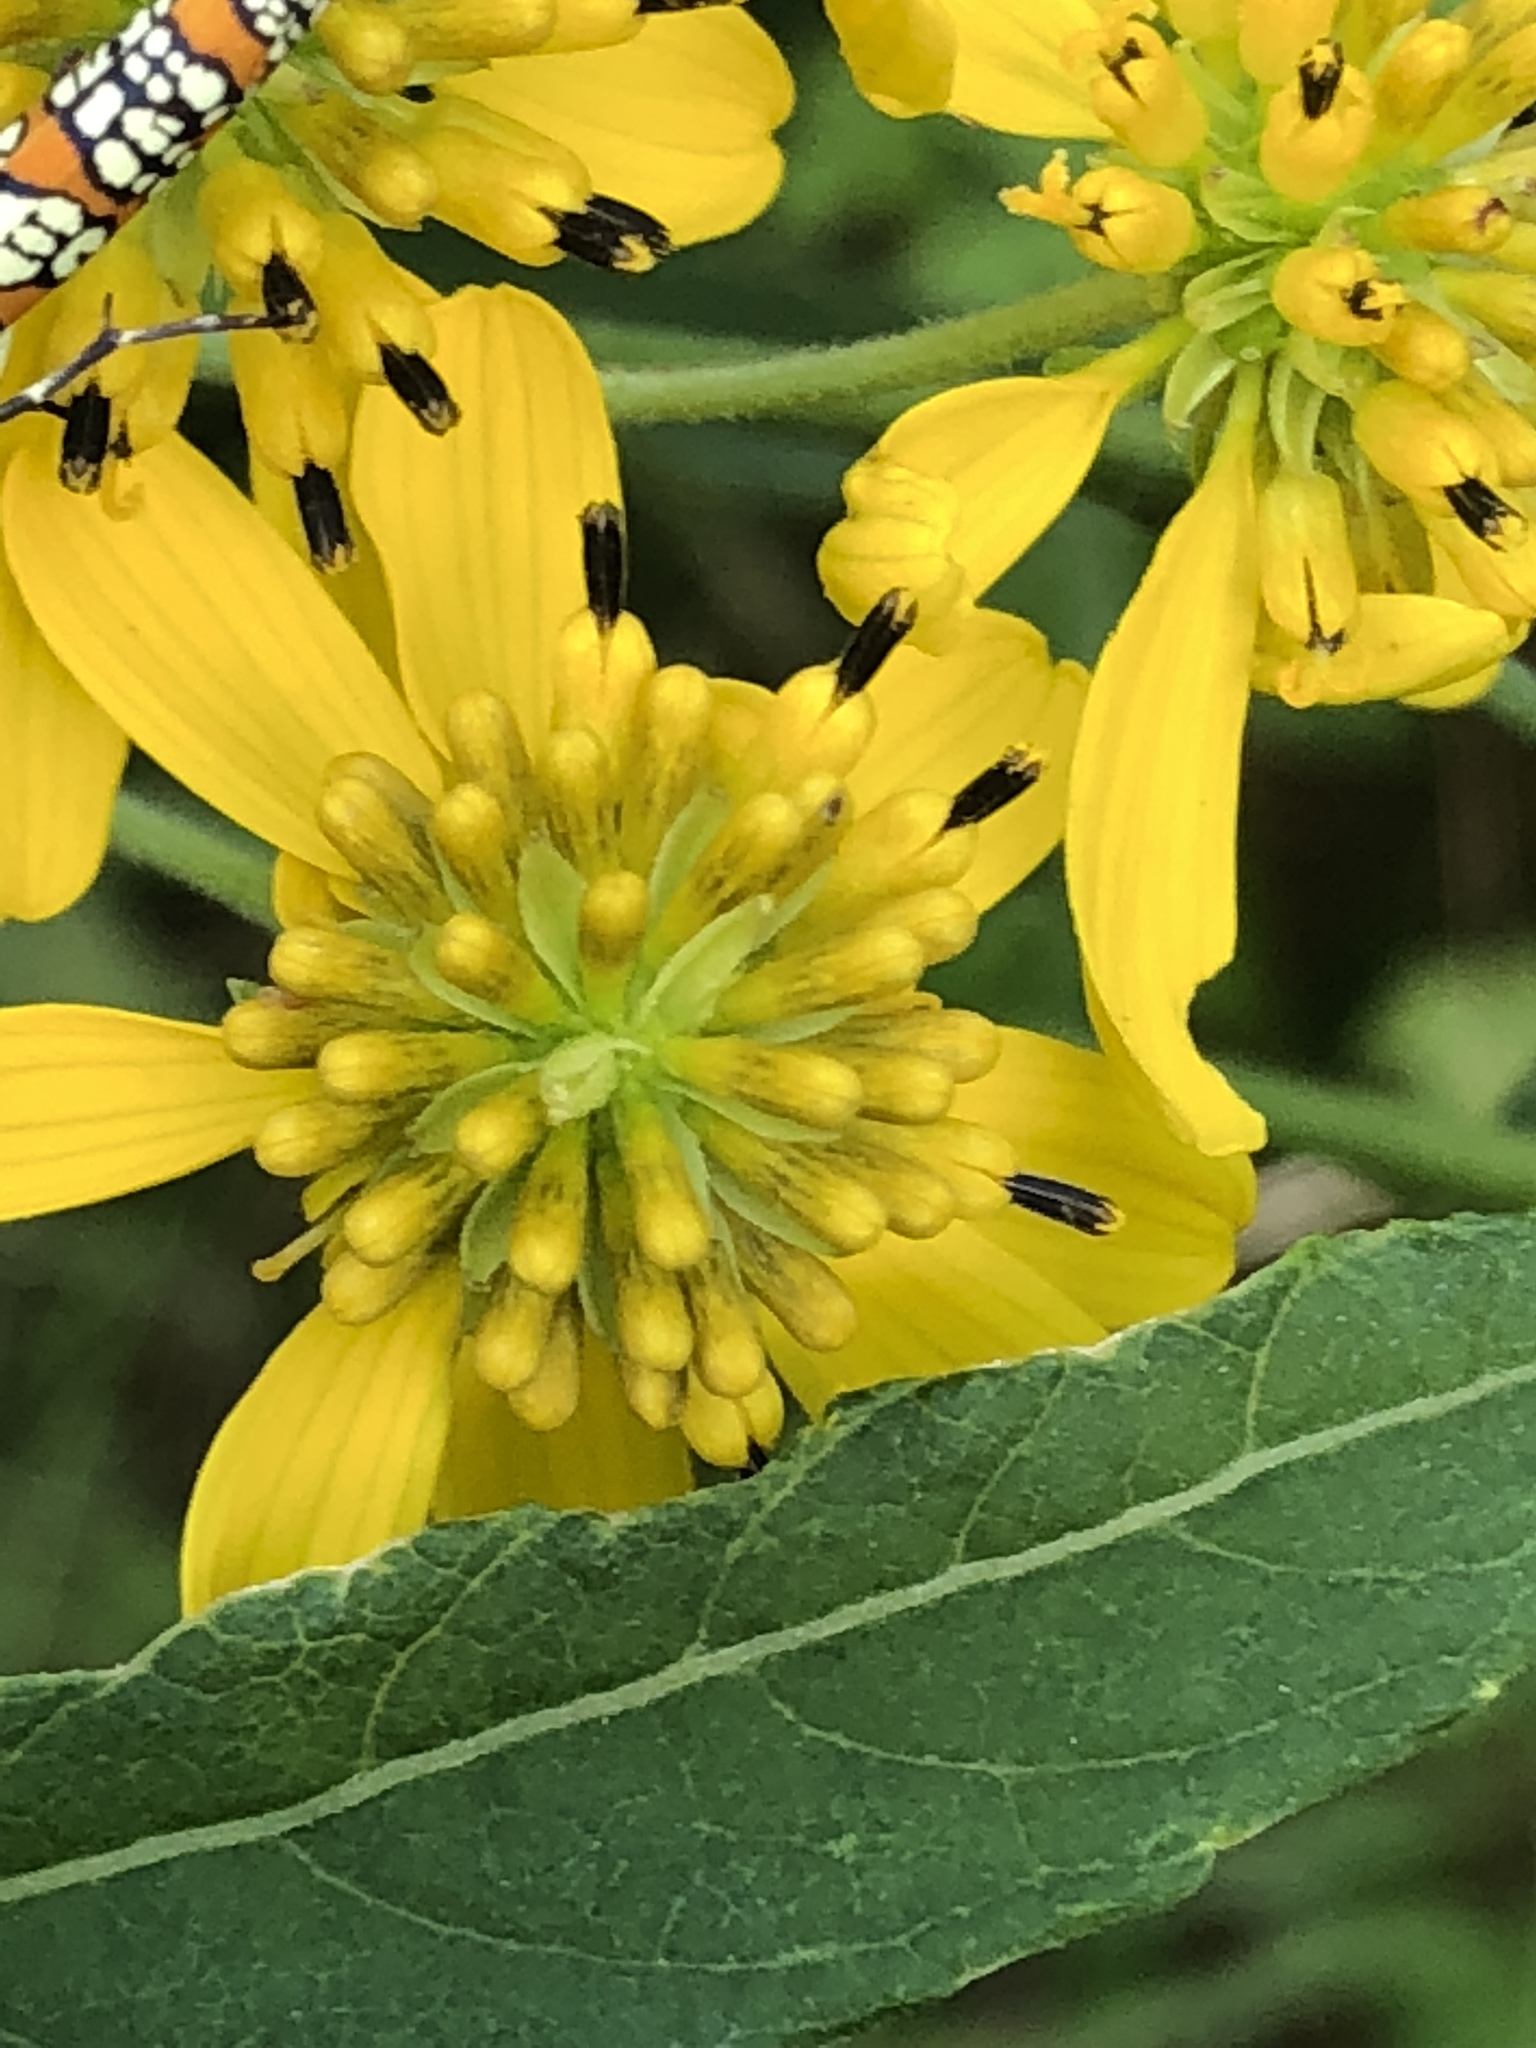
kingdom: Plantae
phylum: Tracheophyta
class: Magnoliopsida
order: Asterales
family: Asteraceae
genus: Verbesina
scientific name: Verbesina alternifolia
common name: Wingstem
